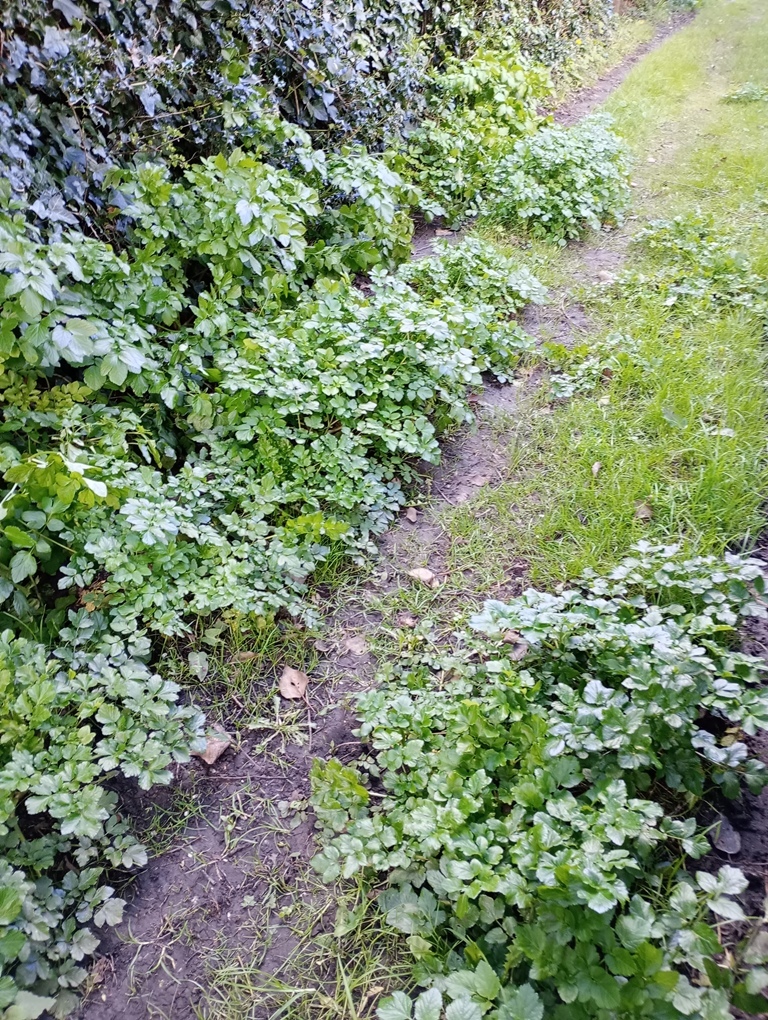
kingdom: Plantae
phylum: Tracheophyta
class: Magnoliopsida
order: Apiales
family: Apiaceae
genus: Smyrnium
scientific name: Smyrnium olusatrum
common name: Alexanders
